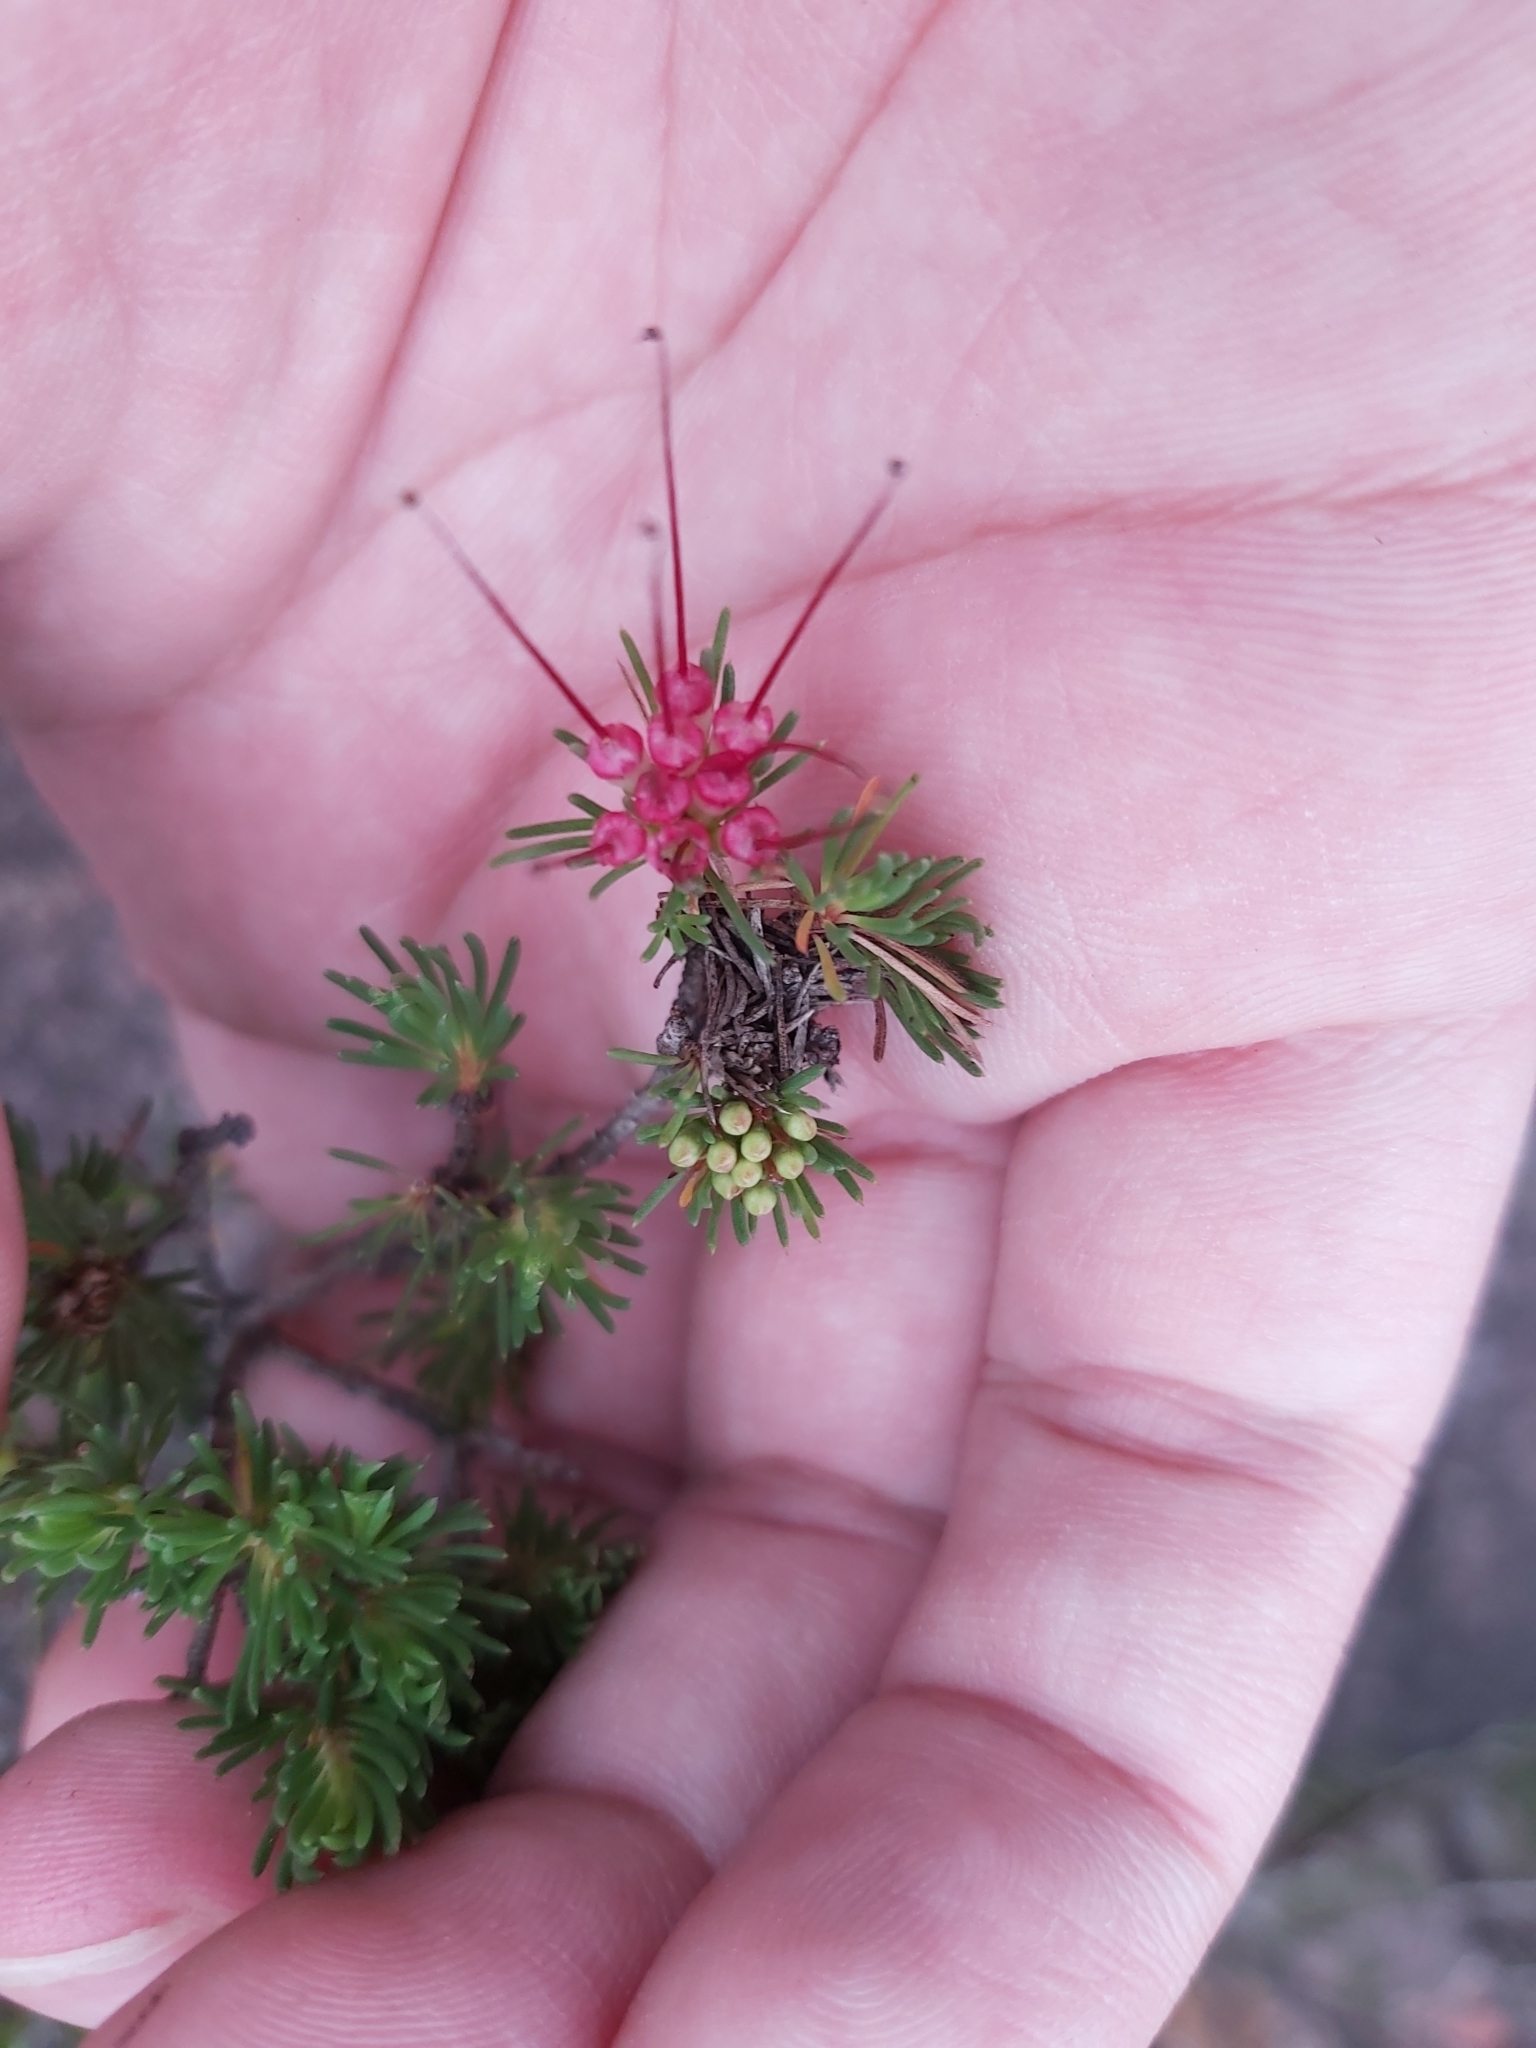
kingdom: Plantae
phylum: Tracheophyta
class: Magnoliopsida
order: Myrtales
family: Myrtaceae
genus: Darwinia
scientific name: Darwinia fascicularis
